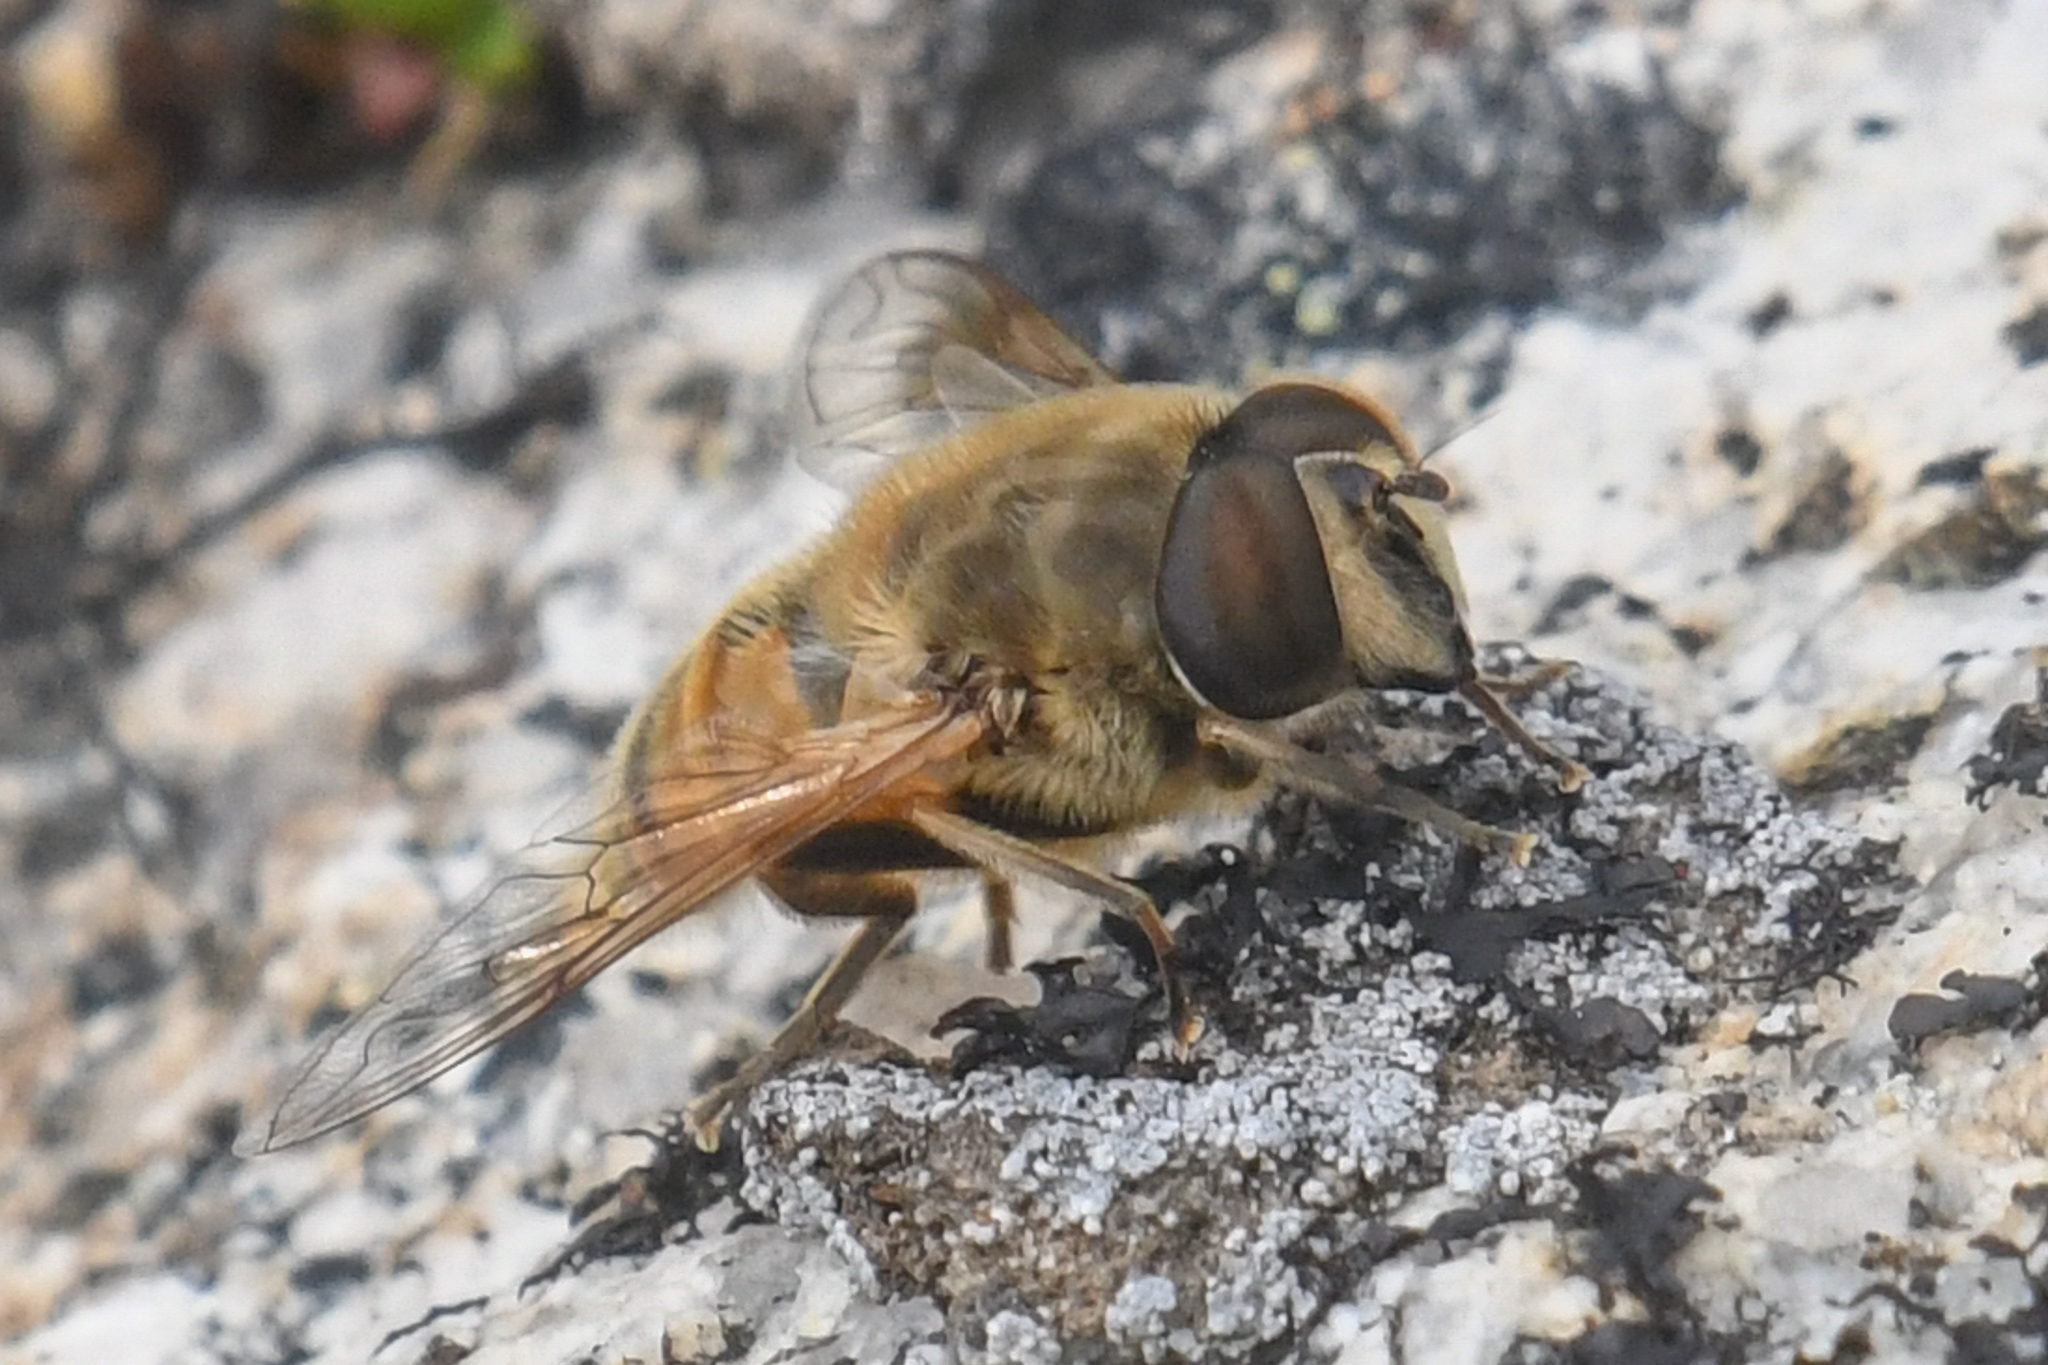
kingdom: Animalia
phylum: Arthropoda
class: Insecta
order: Diptera
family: Syrphidae
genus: Eristalis
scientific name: Eristalis tenax
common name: Drone fly
